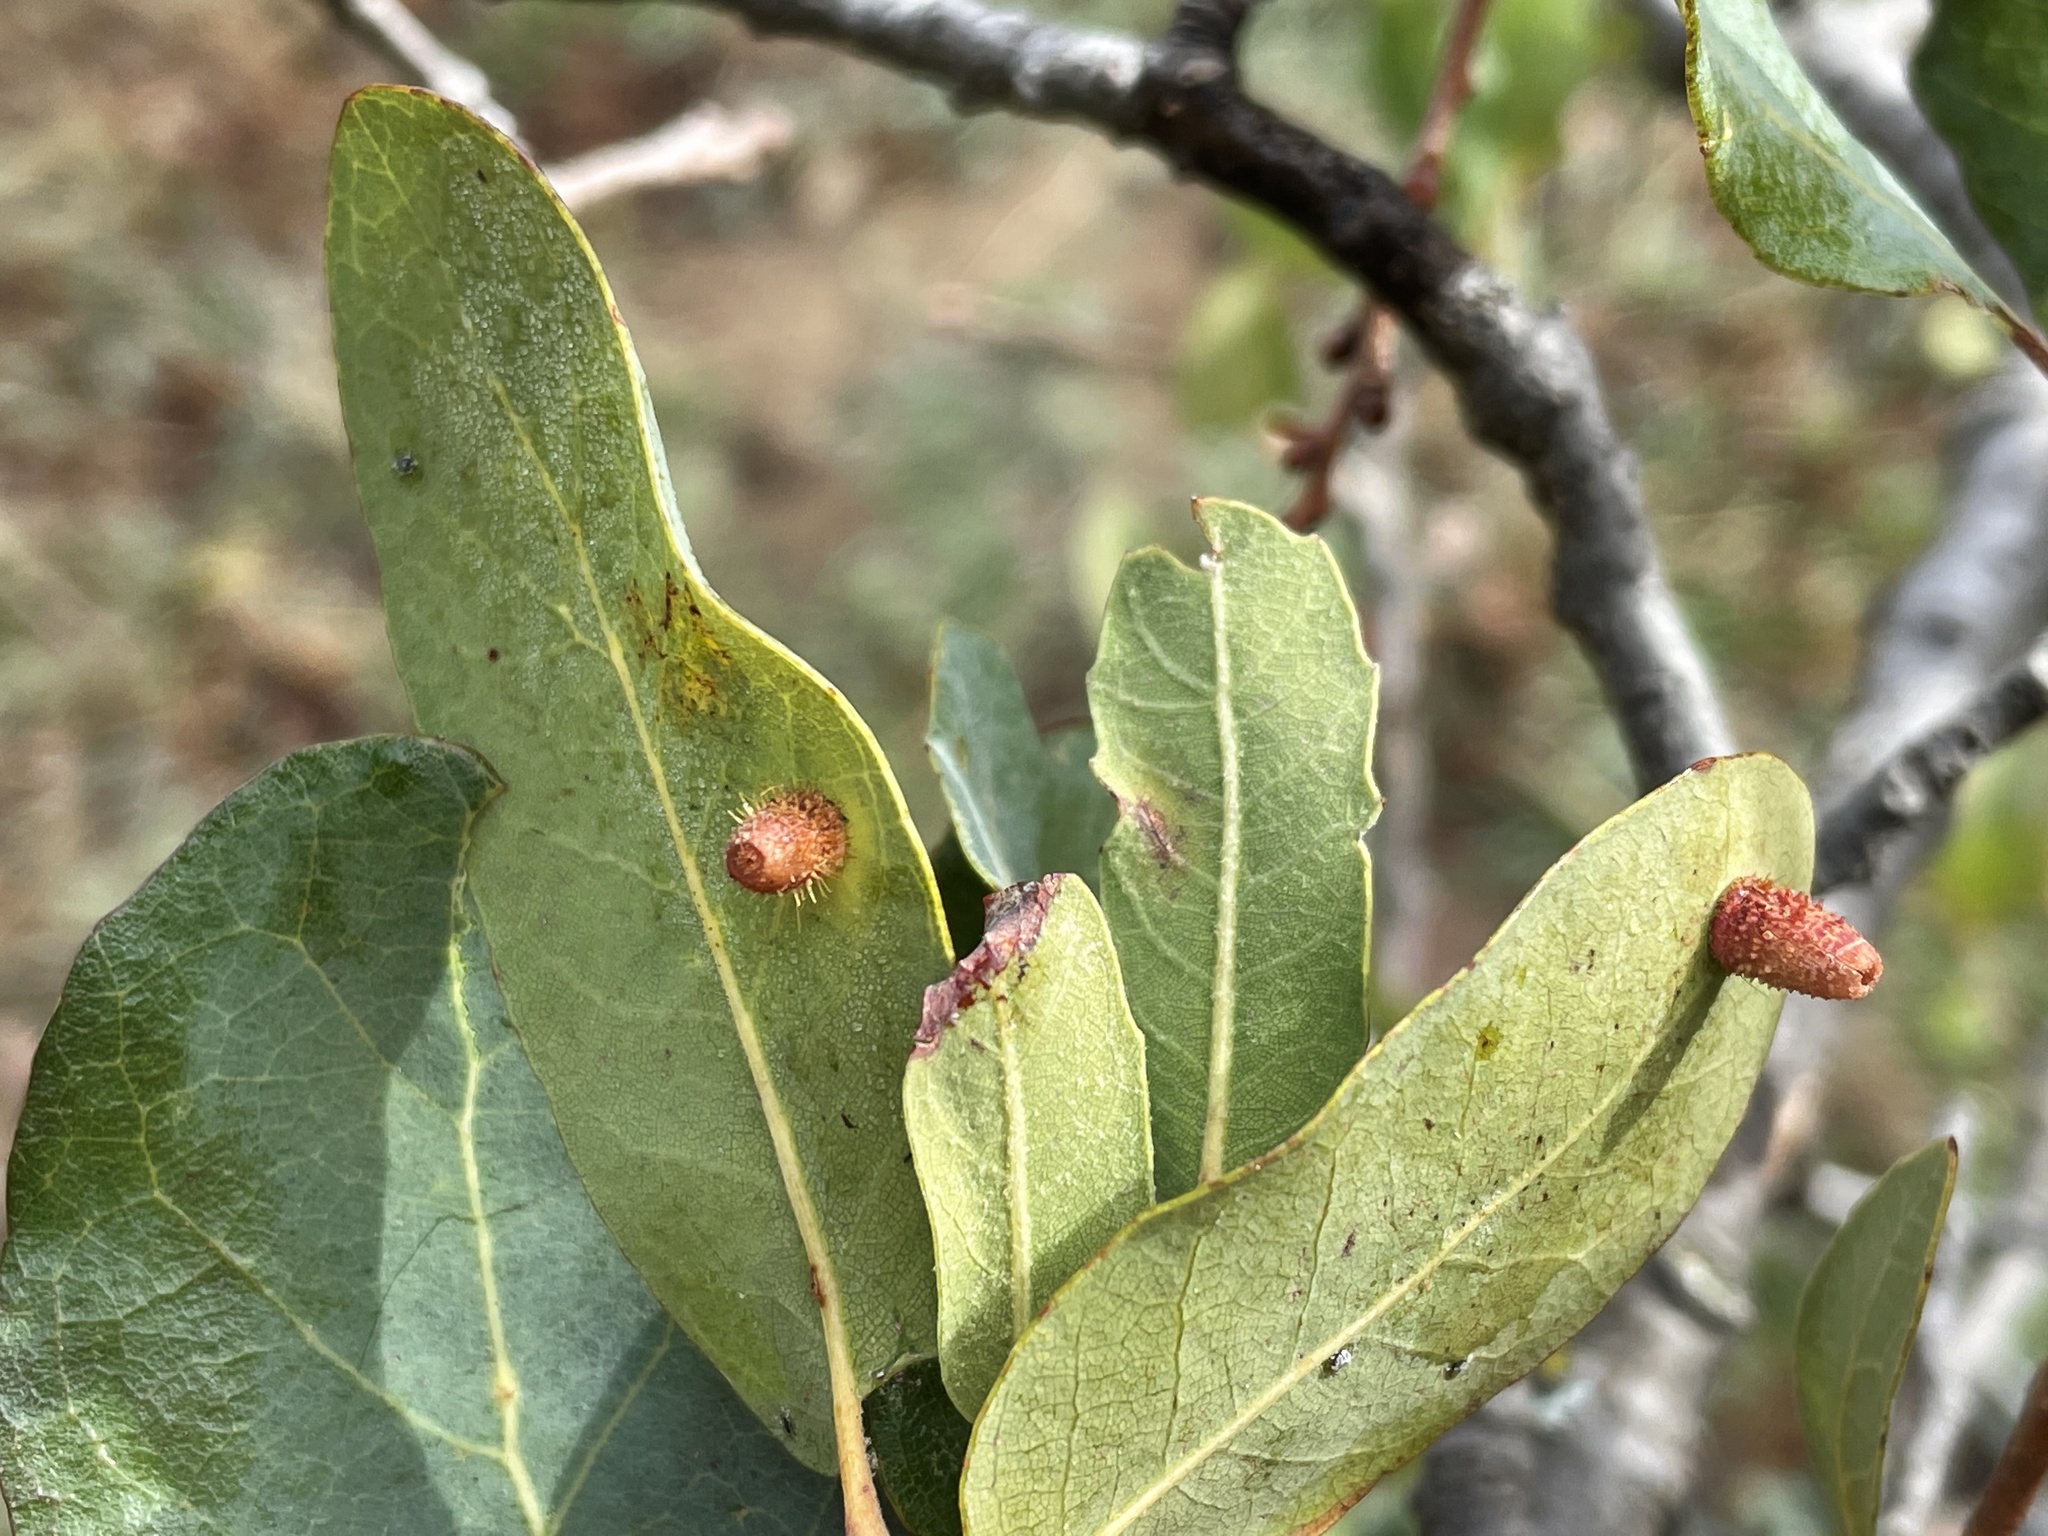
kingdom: Plantae
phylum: Tracheophyta
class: Magnoliopsida
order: Fagales
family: Fagaceae
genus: Quercus
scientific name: Quercus engelmannii
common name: Engelmann oak
